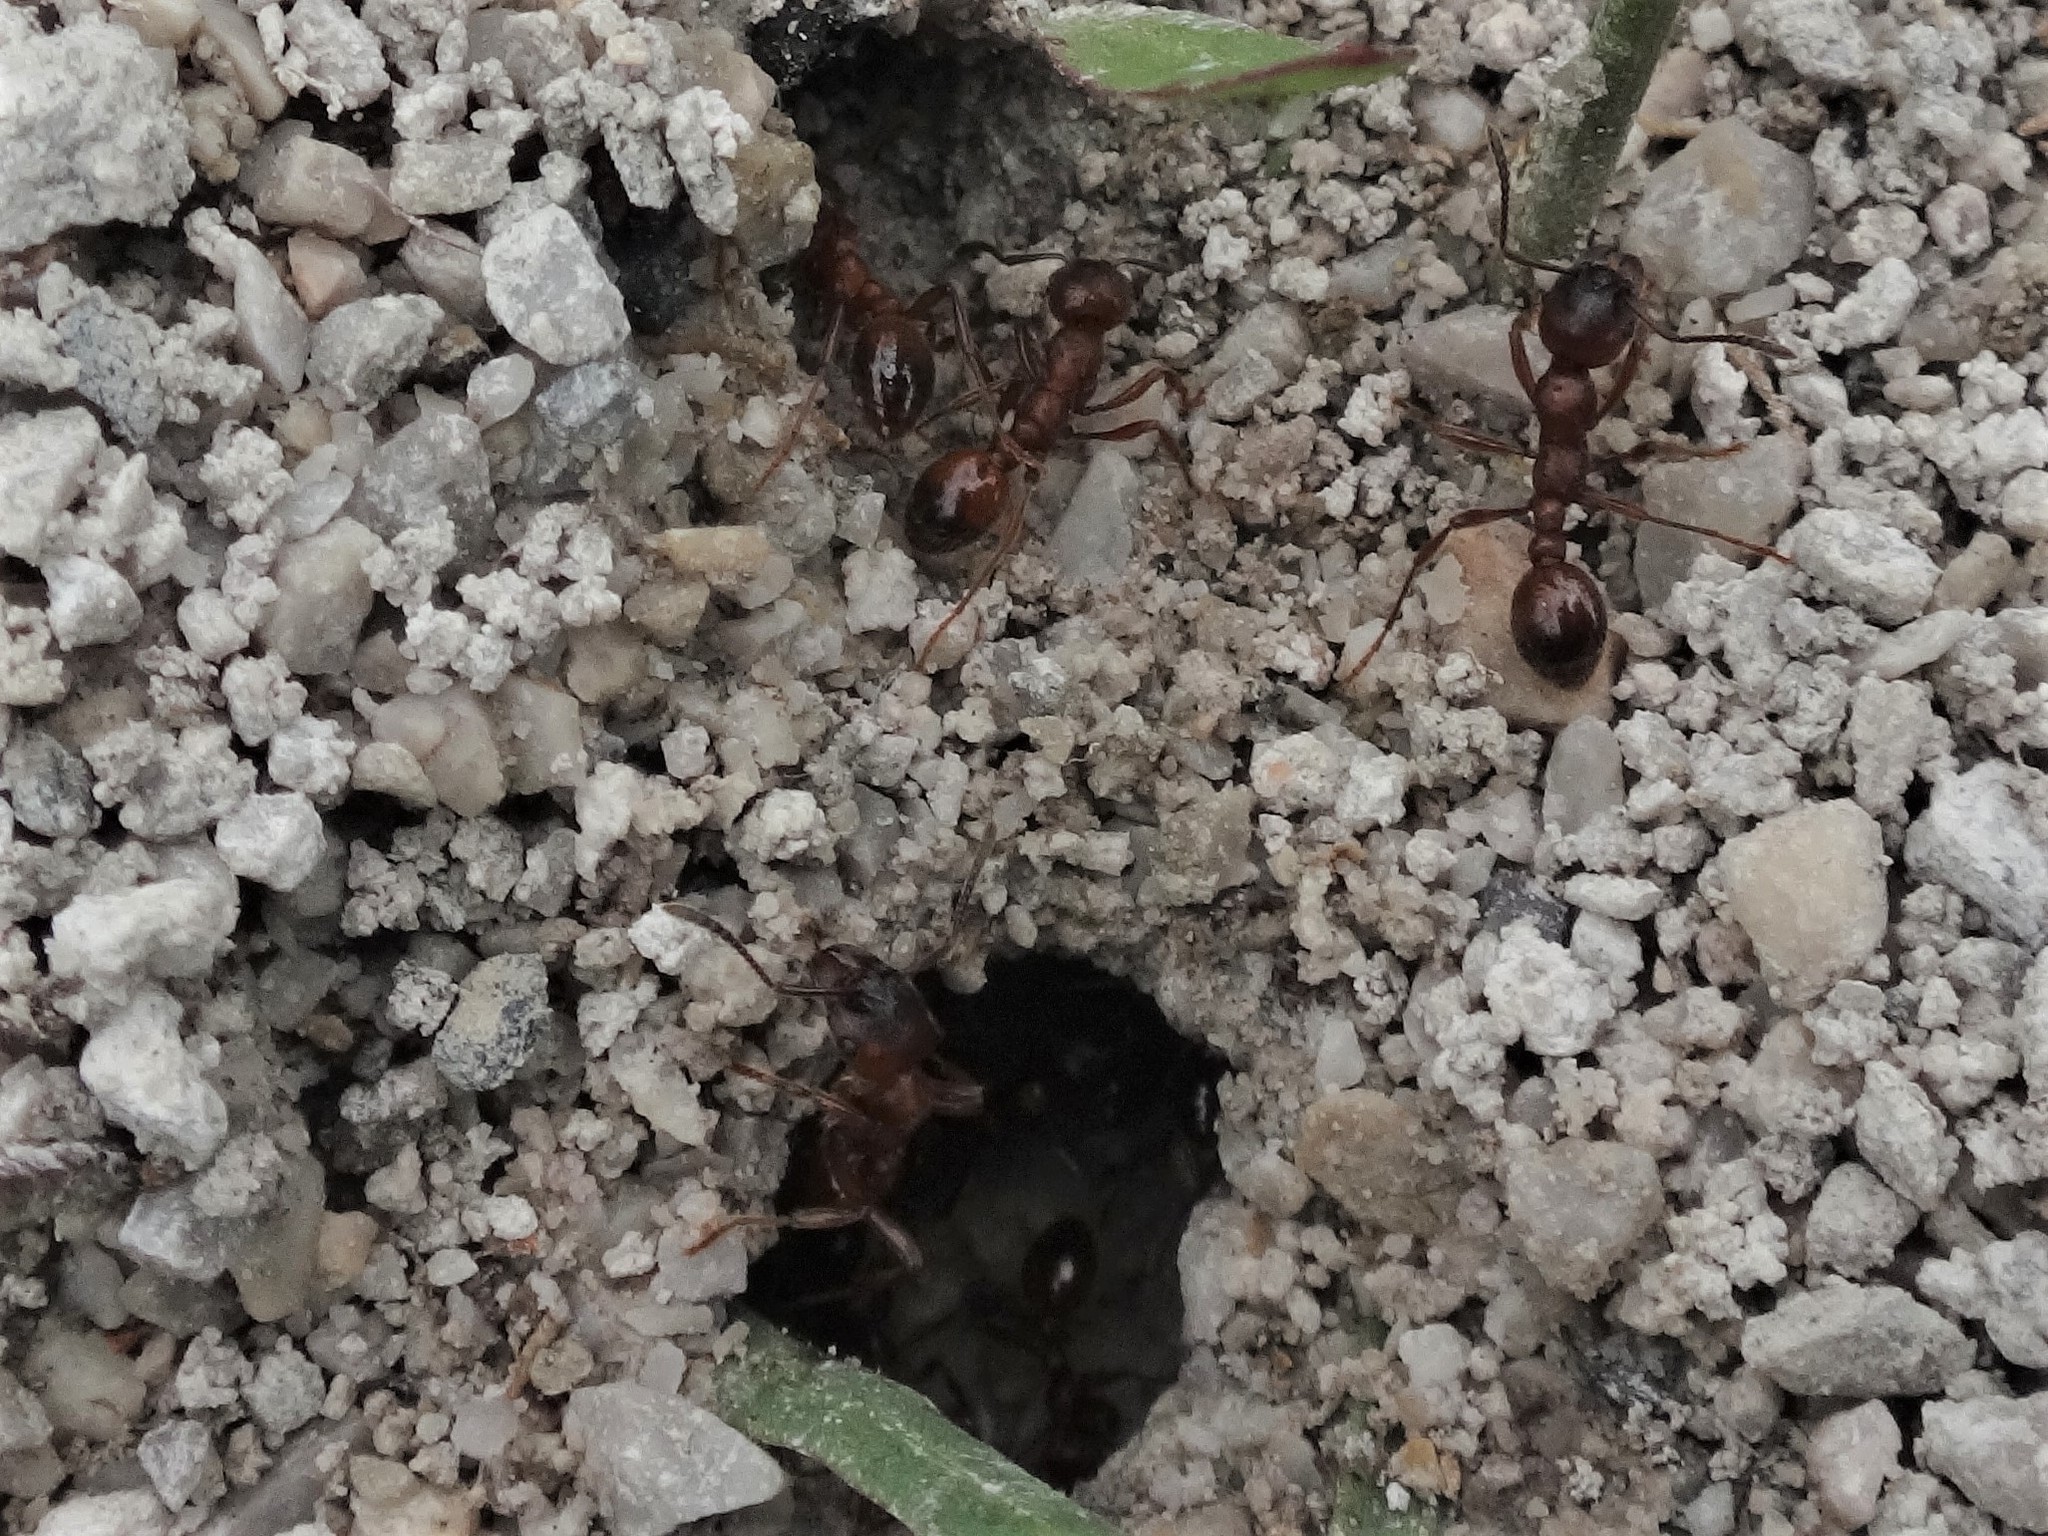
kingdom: Animalia
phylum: Arthropoda
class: Insecta
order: Hymenoptera
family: Formicidae
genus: Manica
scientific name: Manica rubida
